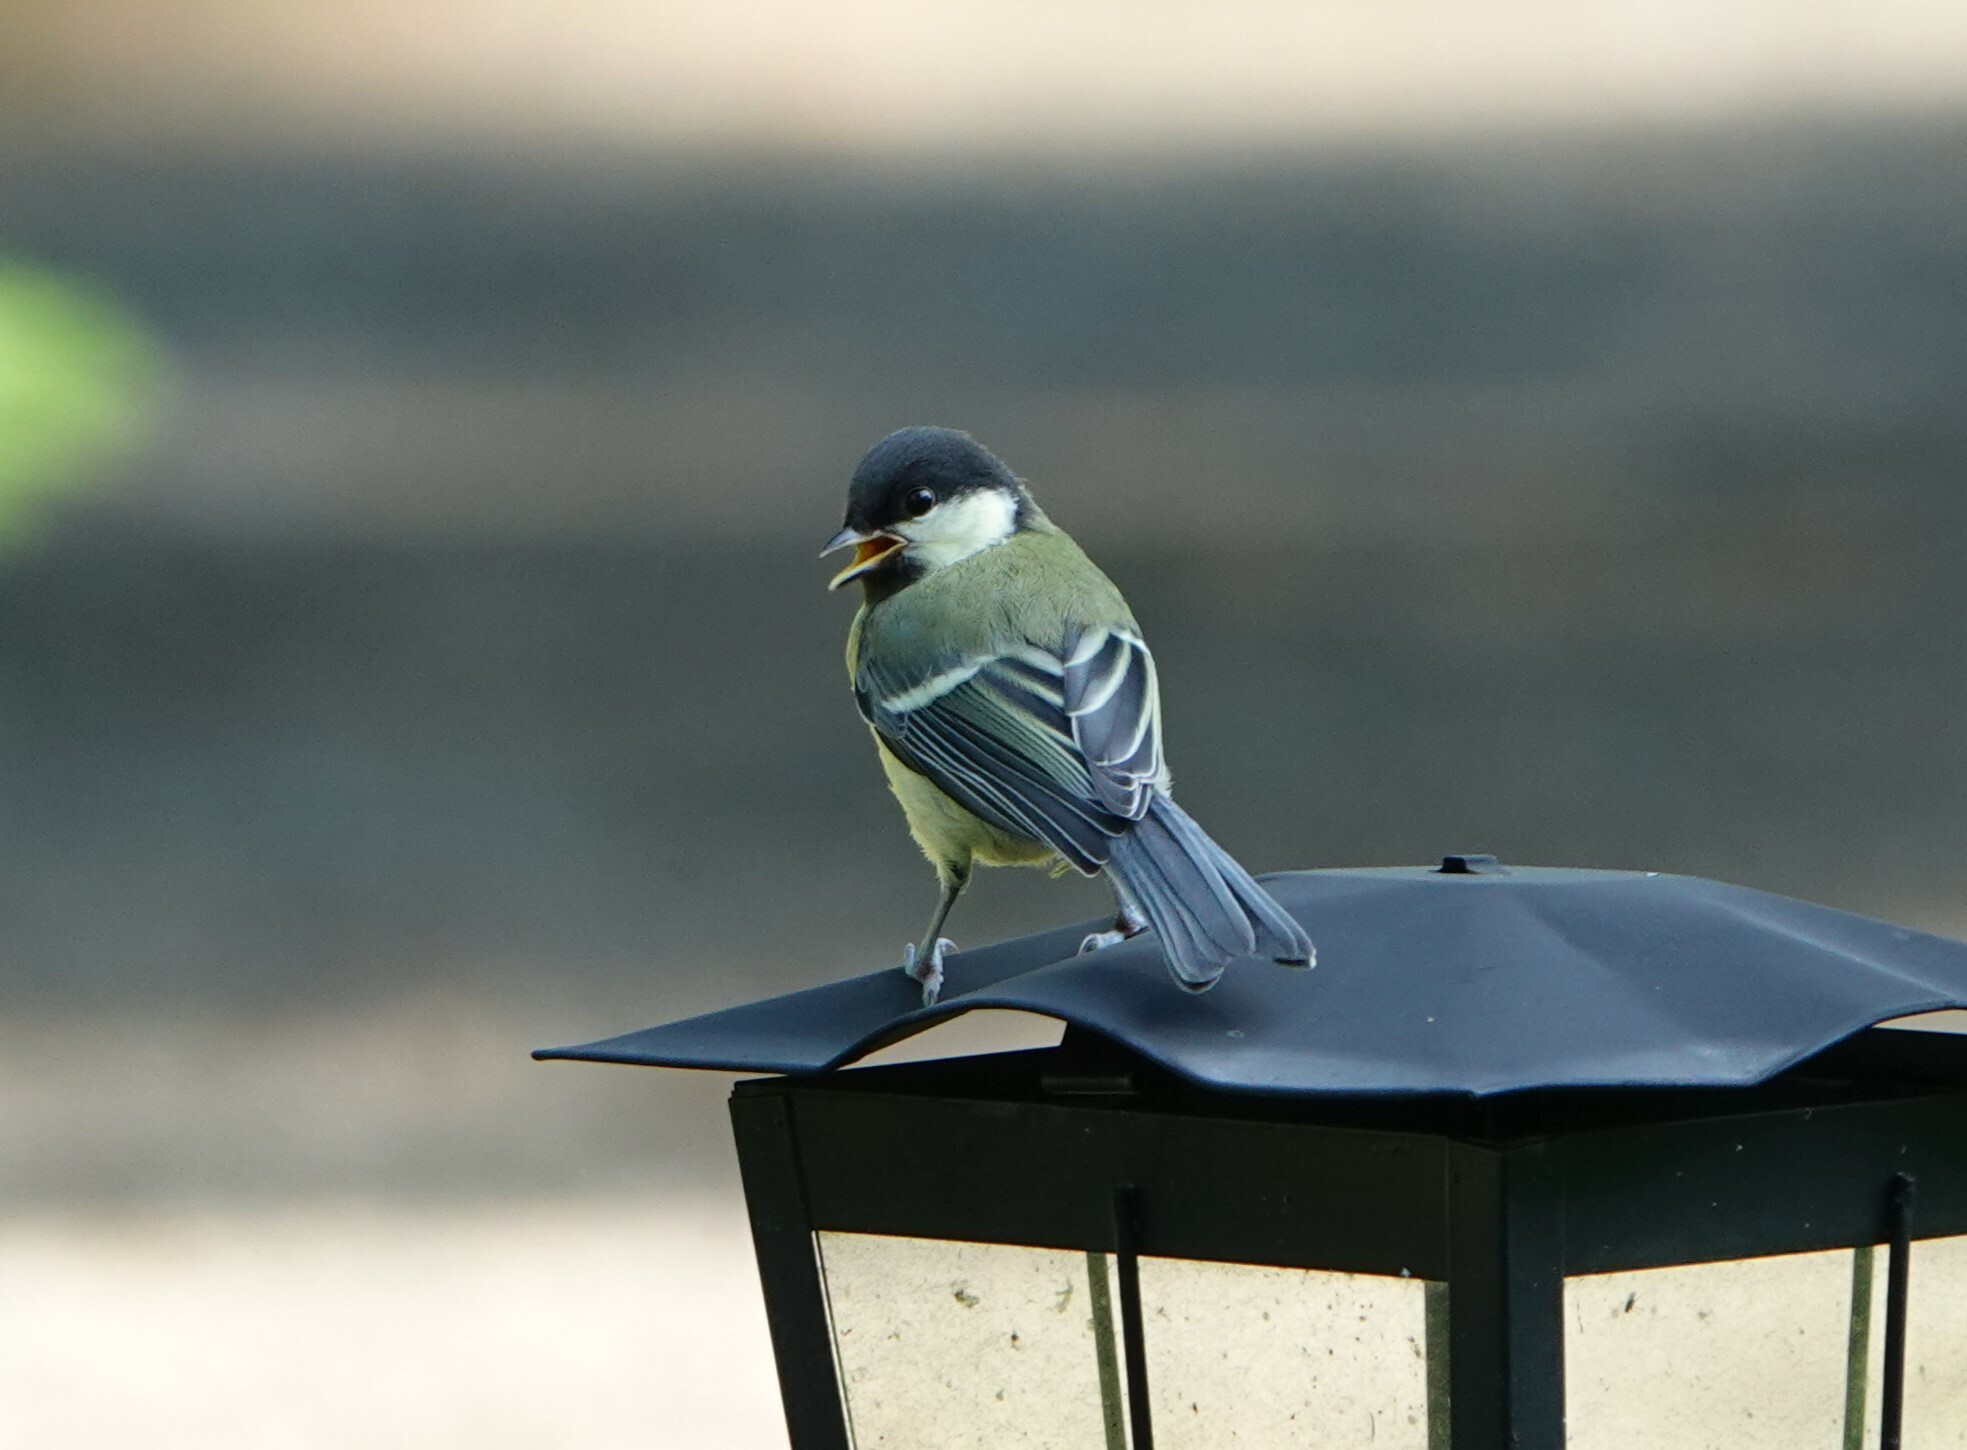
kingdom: Animalia
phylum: Chordata
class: Aves
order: Passeriformes
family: Paridae
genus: Parus
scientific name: Parus major
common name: Great tit
